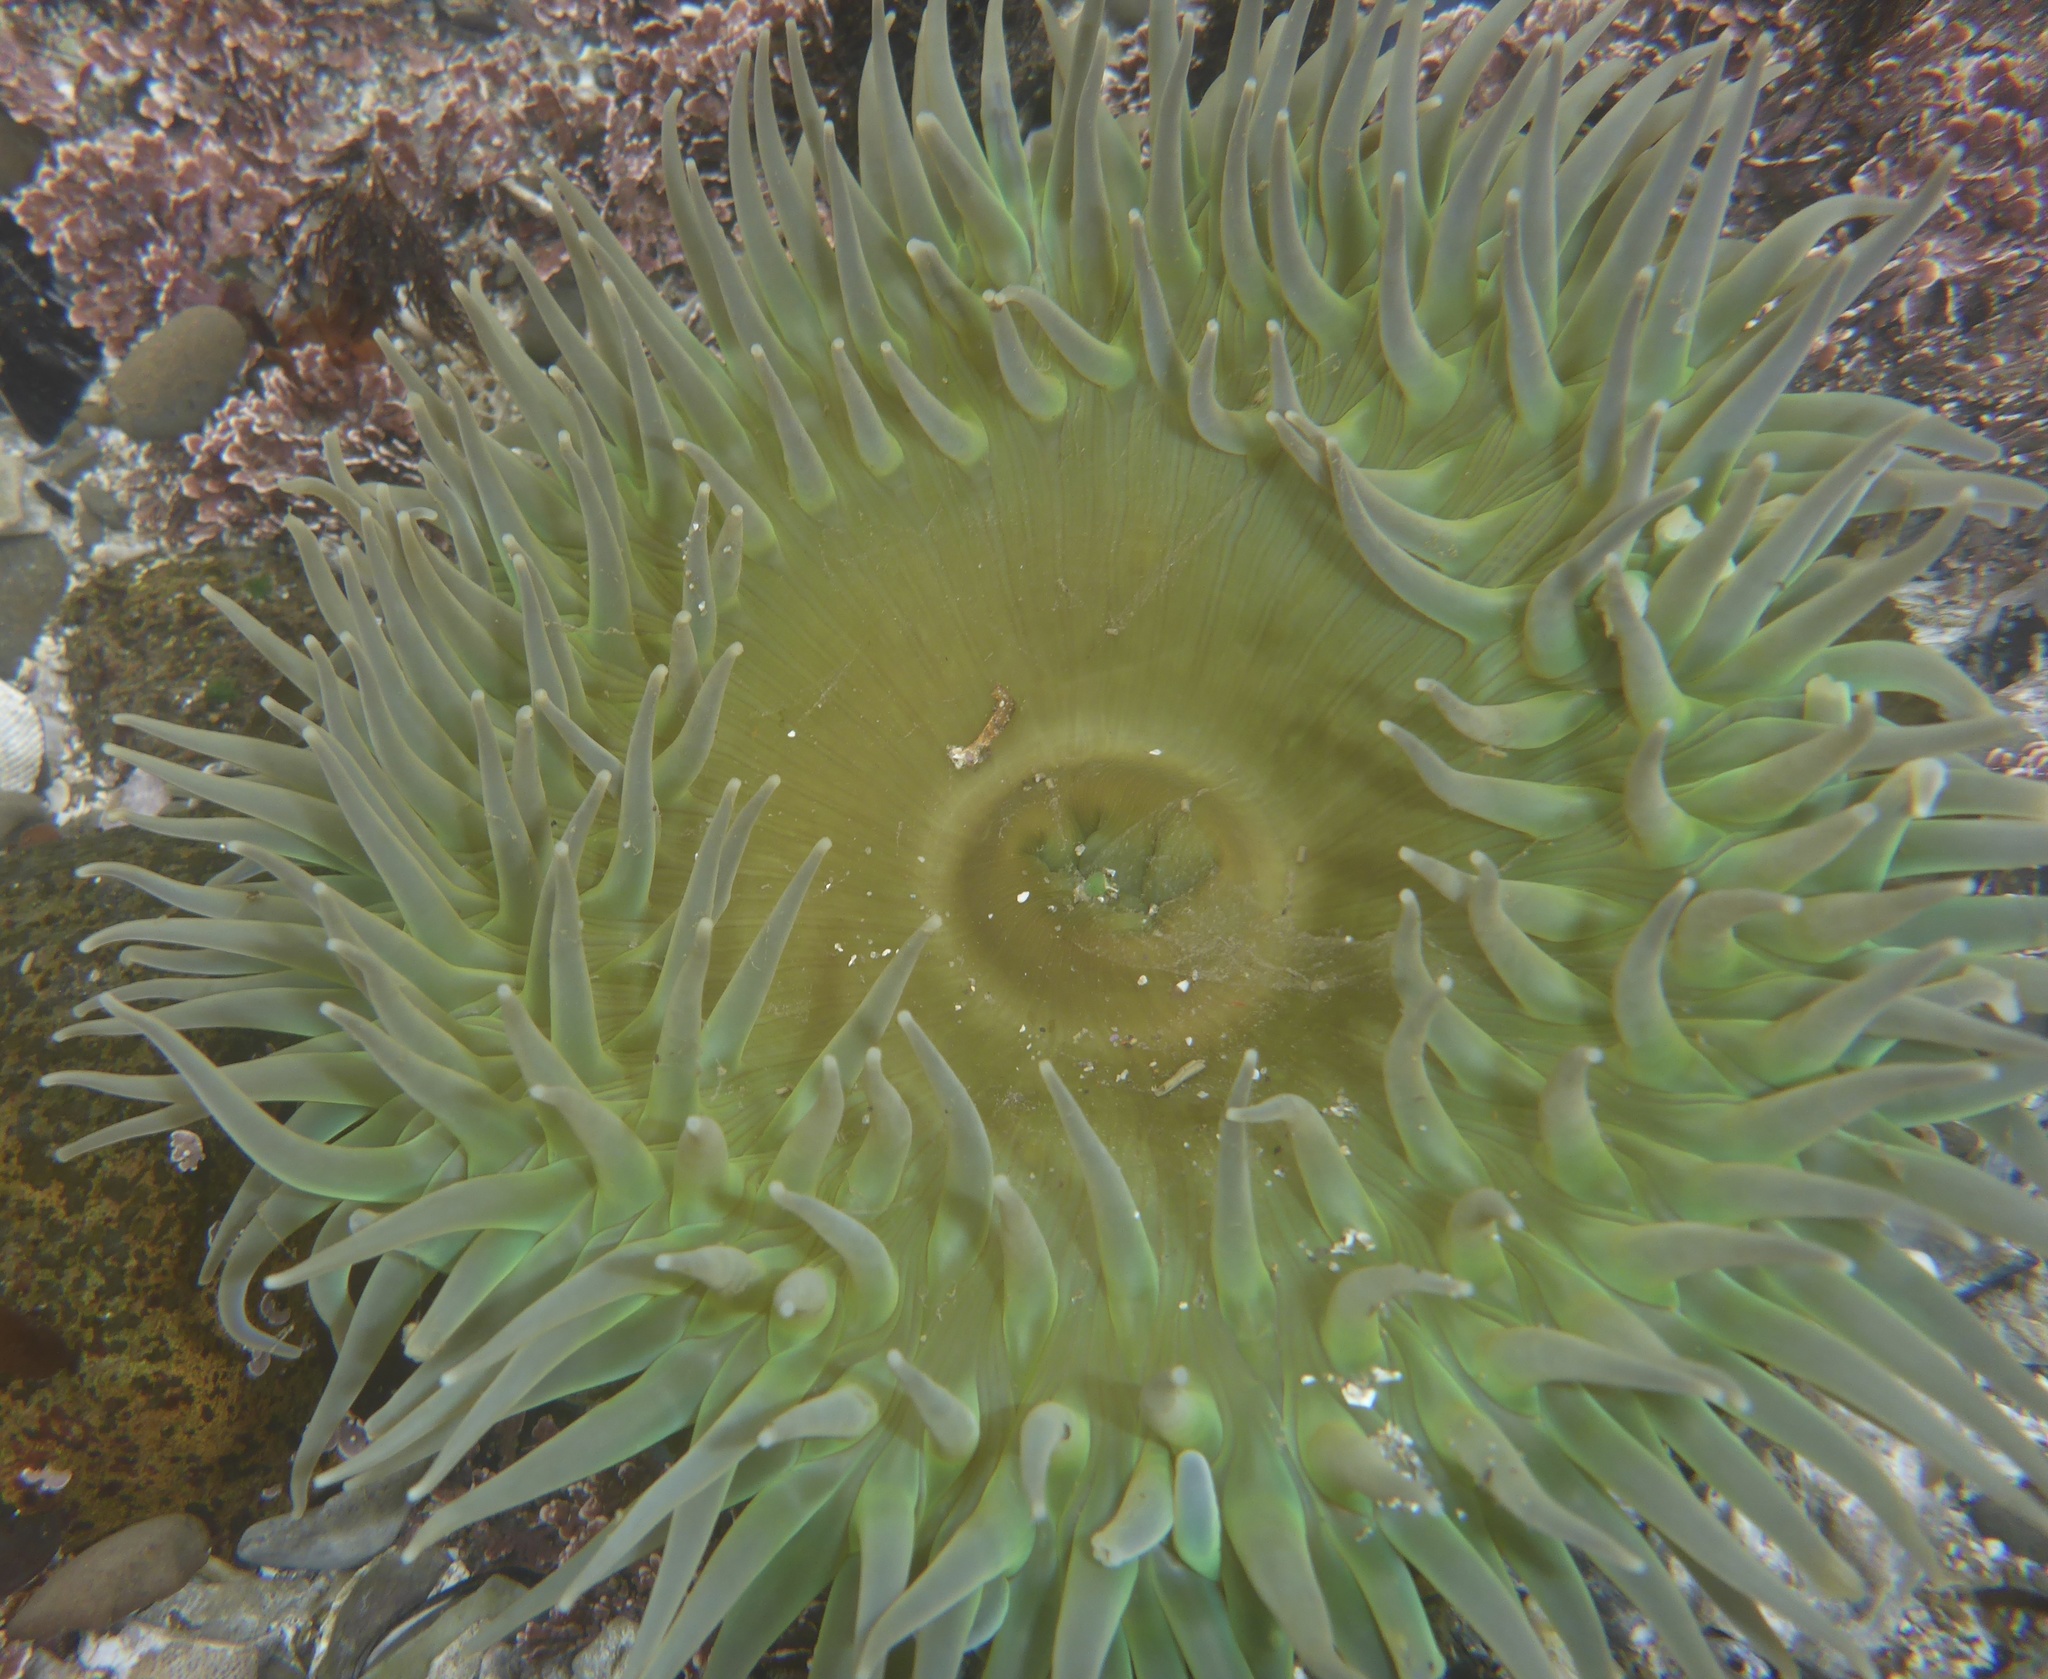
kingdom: Animalia
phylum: Cnidaria
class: Anthozoa
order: Actiniaria
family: Actiniidae
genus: Anthopleura
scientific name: Anthopleura xanthogrammica
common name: Giant green anemone
